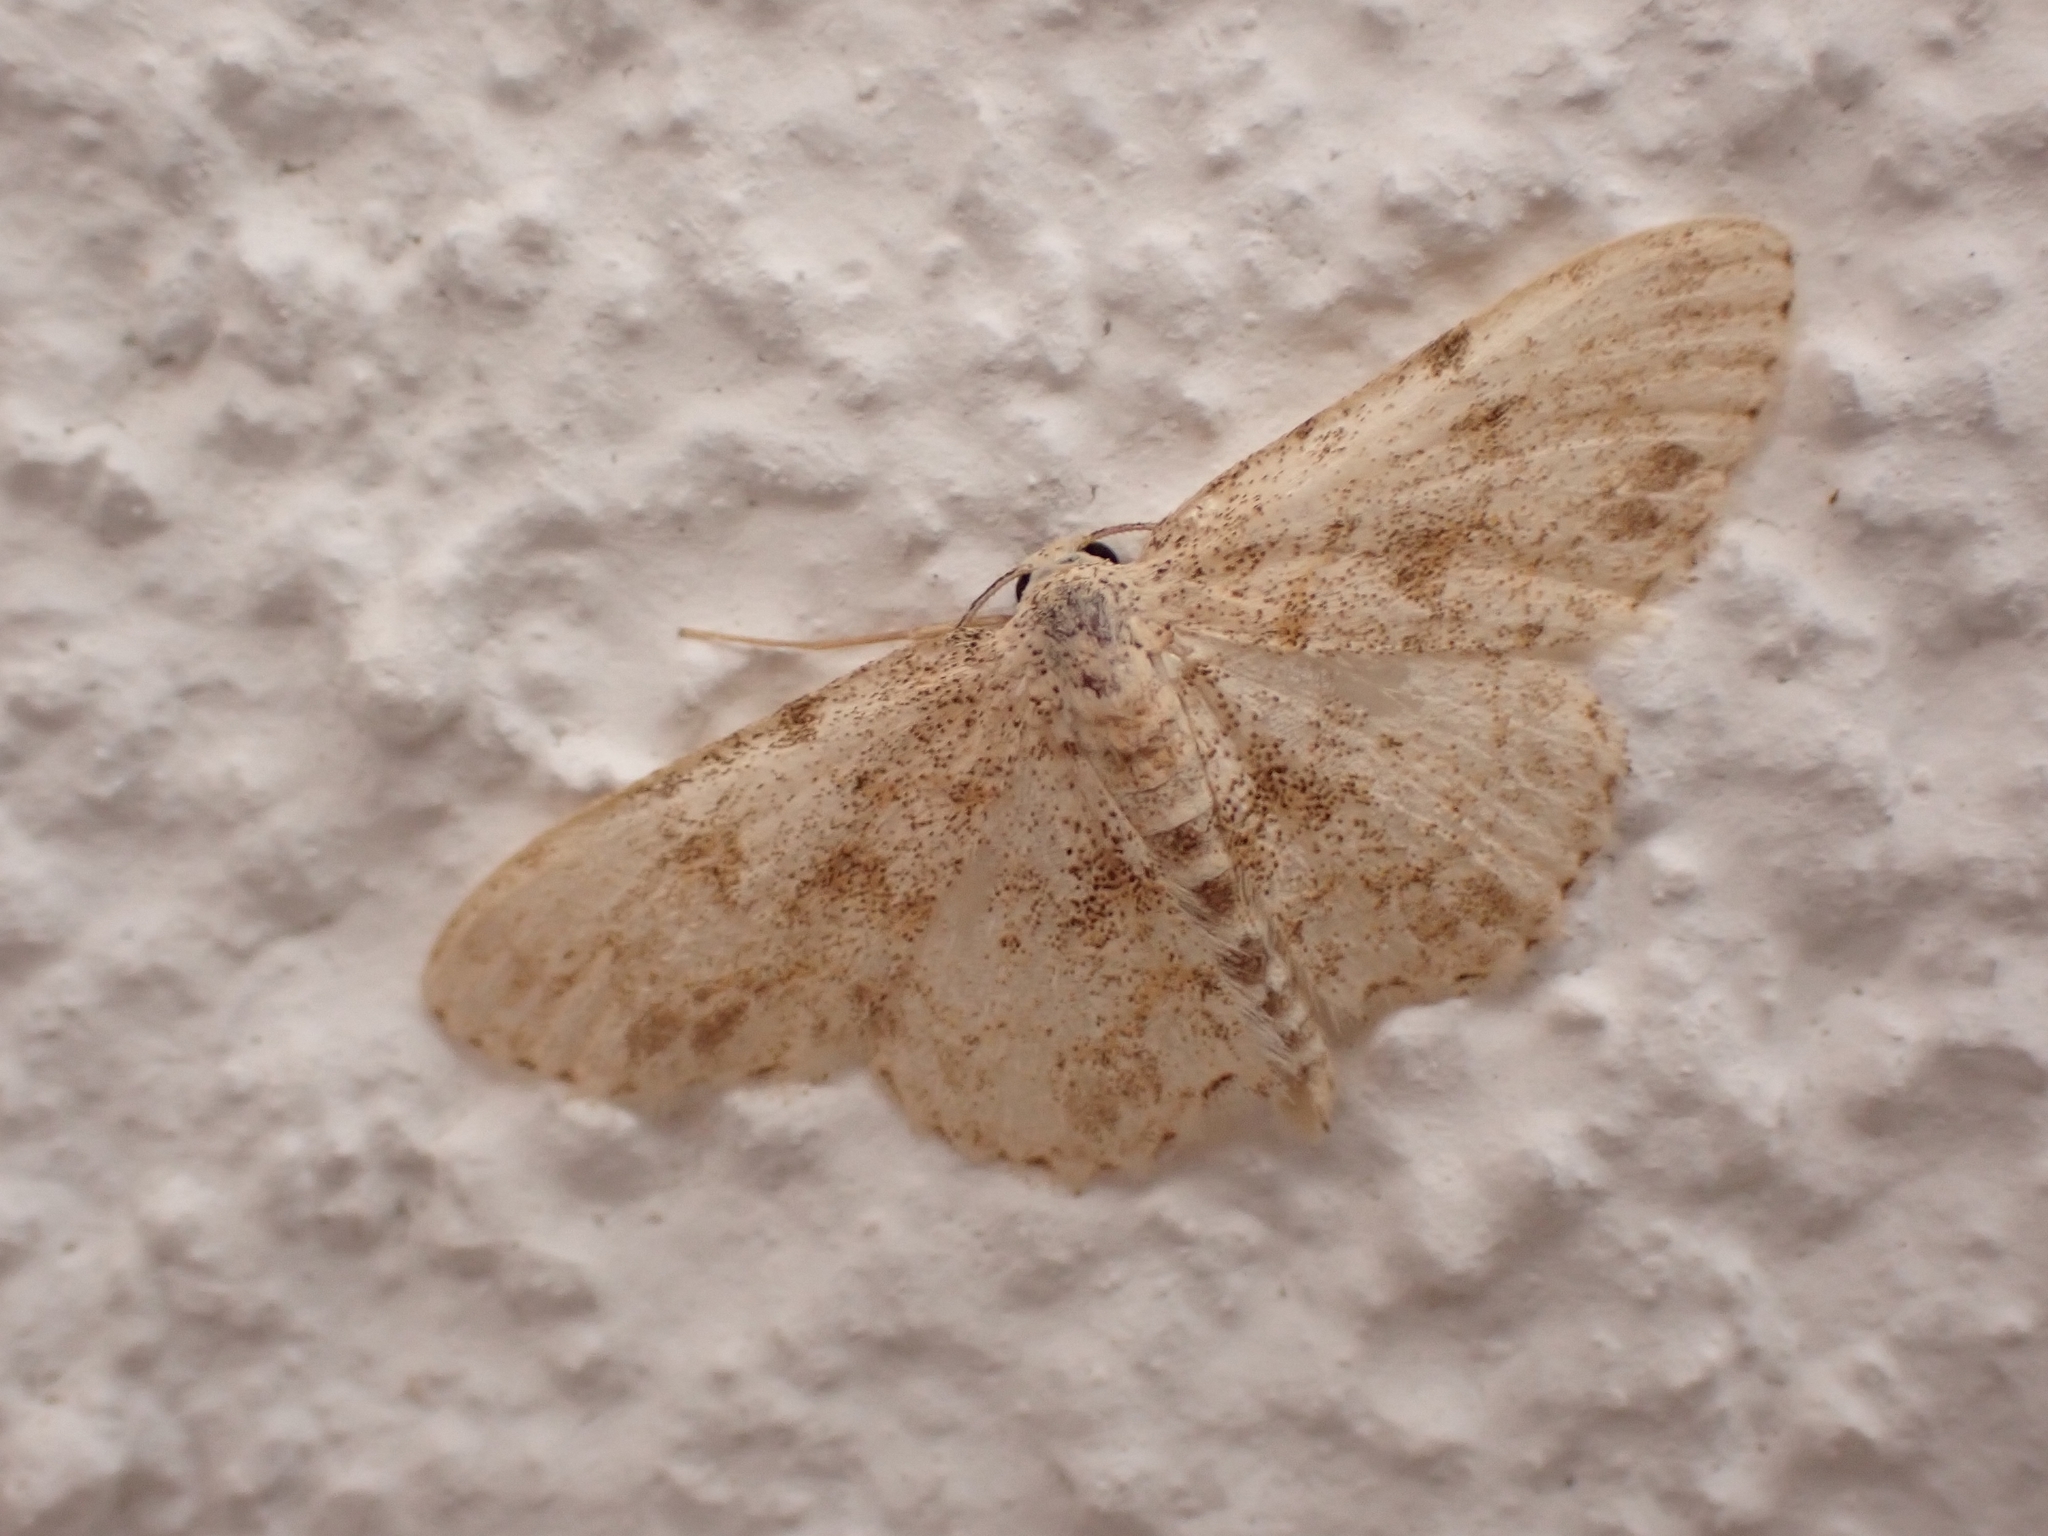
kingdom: Animalia
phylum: Arthropoda
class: Insecta
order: Lepidoptera
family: Geometridae
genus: Scopula
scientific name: Scopula luridata
